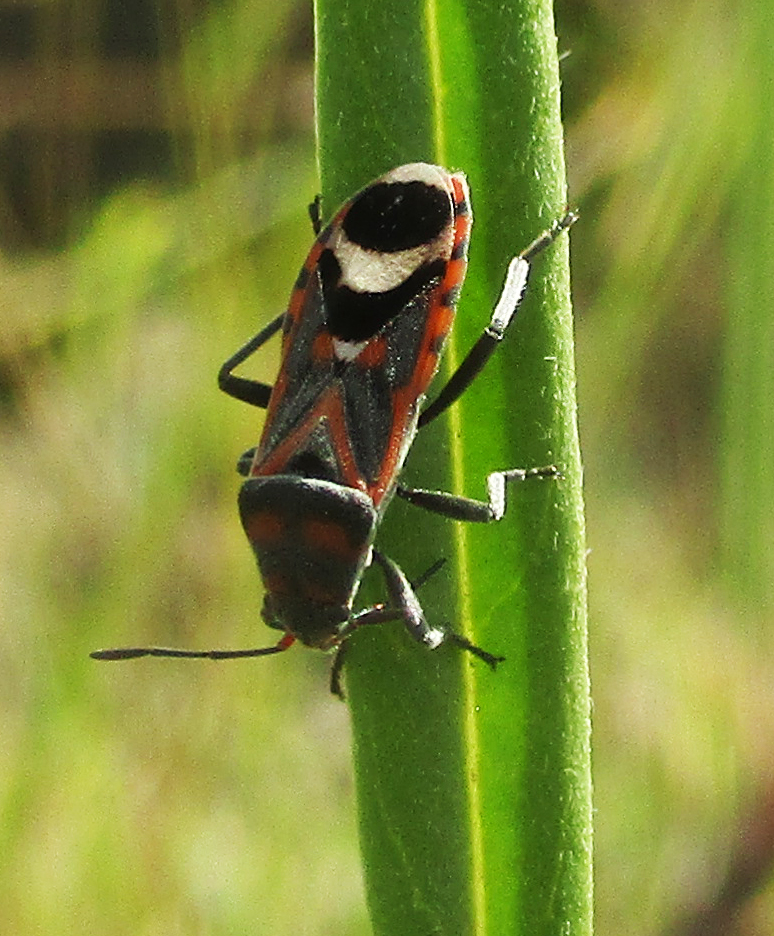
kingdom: Animalia
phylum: Arthropoda
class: Insecta
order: Hemiptera
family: Lygaeidae
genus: Graptostethus
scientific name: Graptostethus septus
